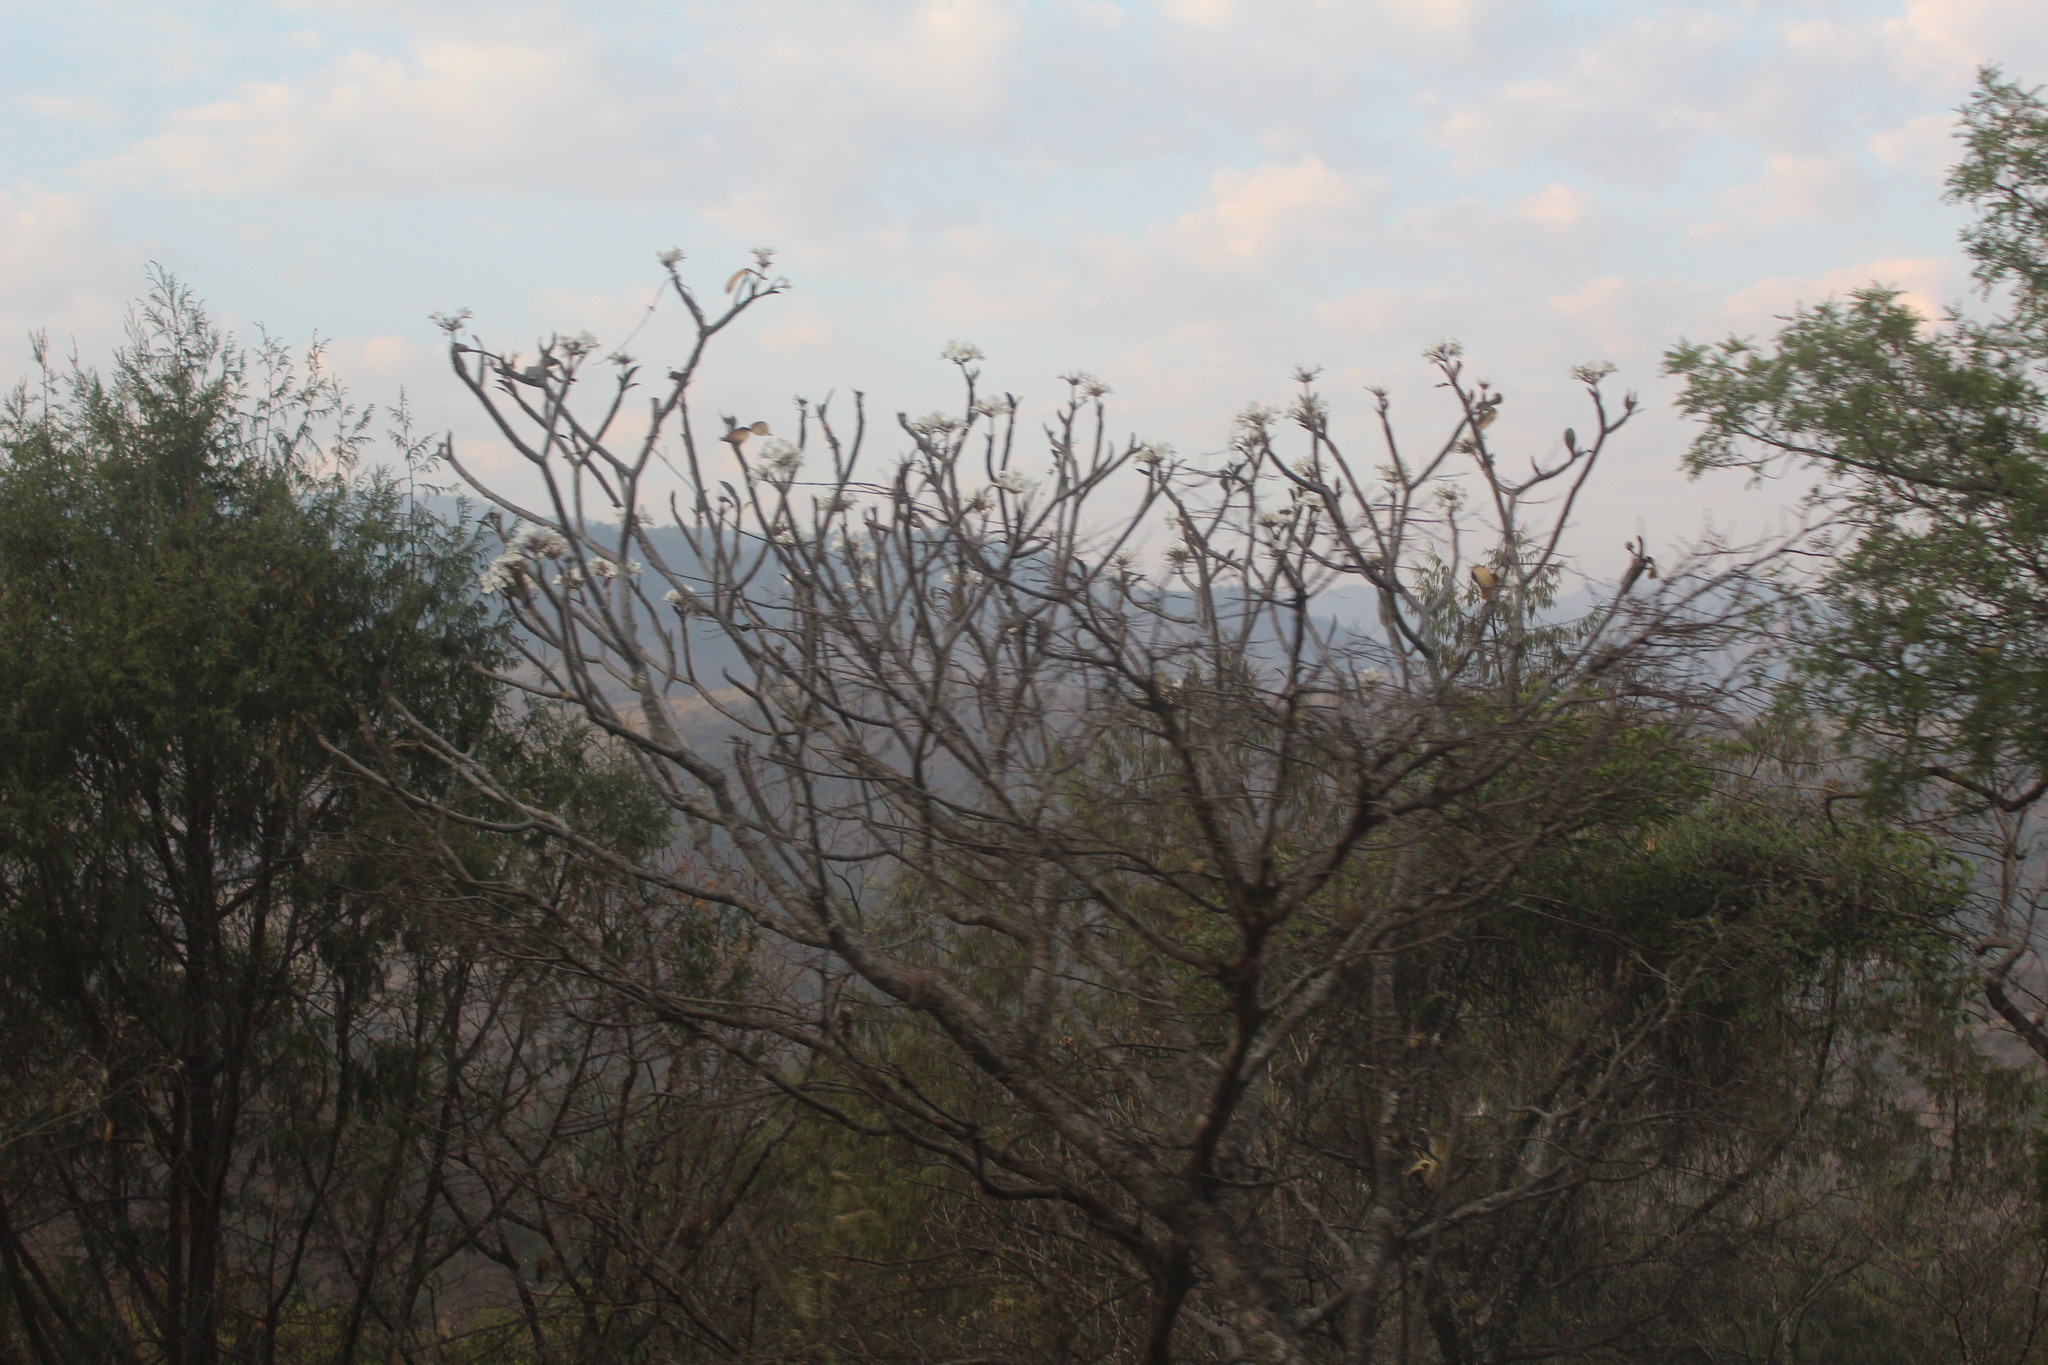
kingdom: Plantae
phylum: Tracheophyta
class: Magnoliopsida
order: Gentianales
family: Apocynaceae
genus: Plumeria
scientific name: Plumeria rubra
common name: Pagoda-tree
